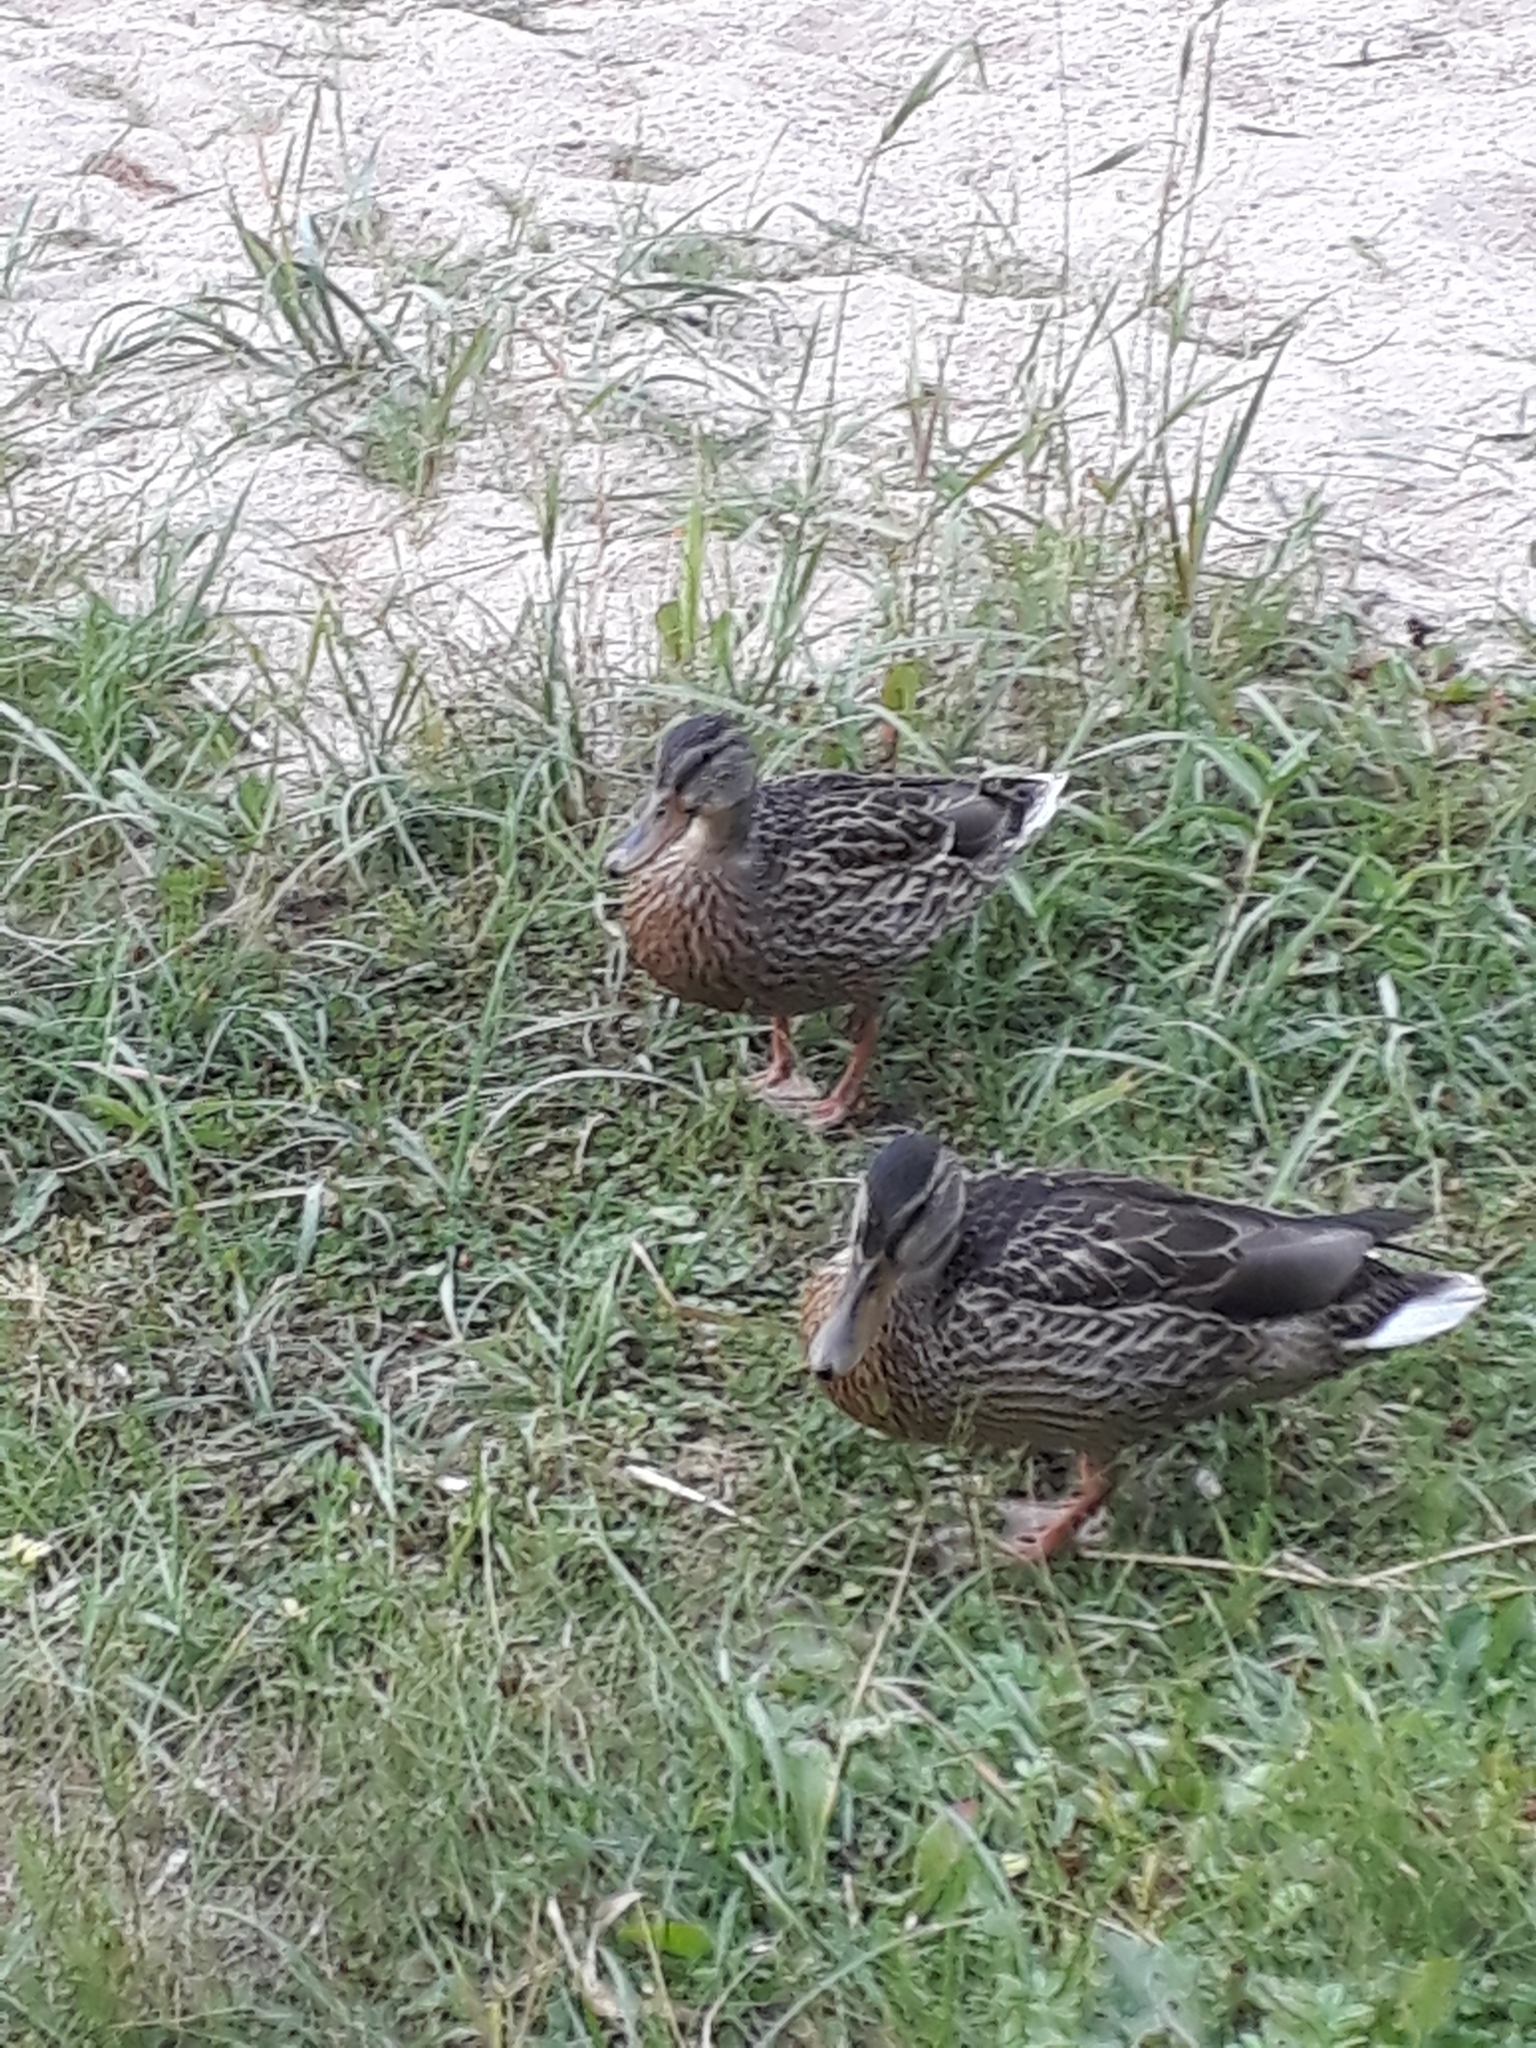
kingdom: Animalia
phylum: Chordata
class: Aves
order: Anseriformes
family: Anatidae
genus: Anas
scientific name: Anas platyrhynchos
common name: Mallard
